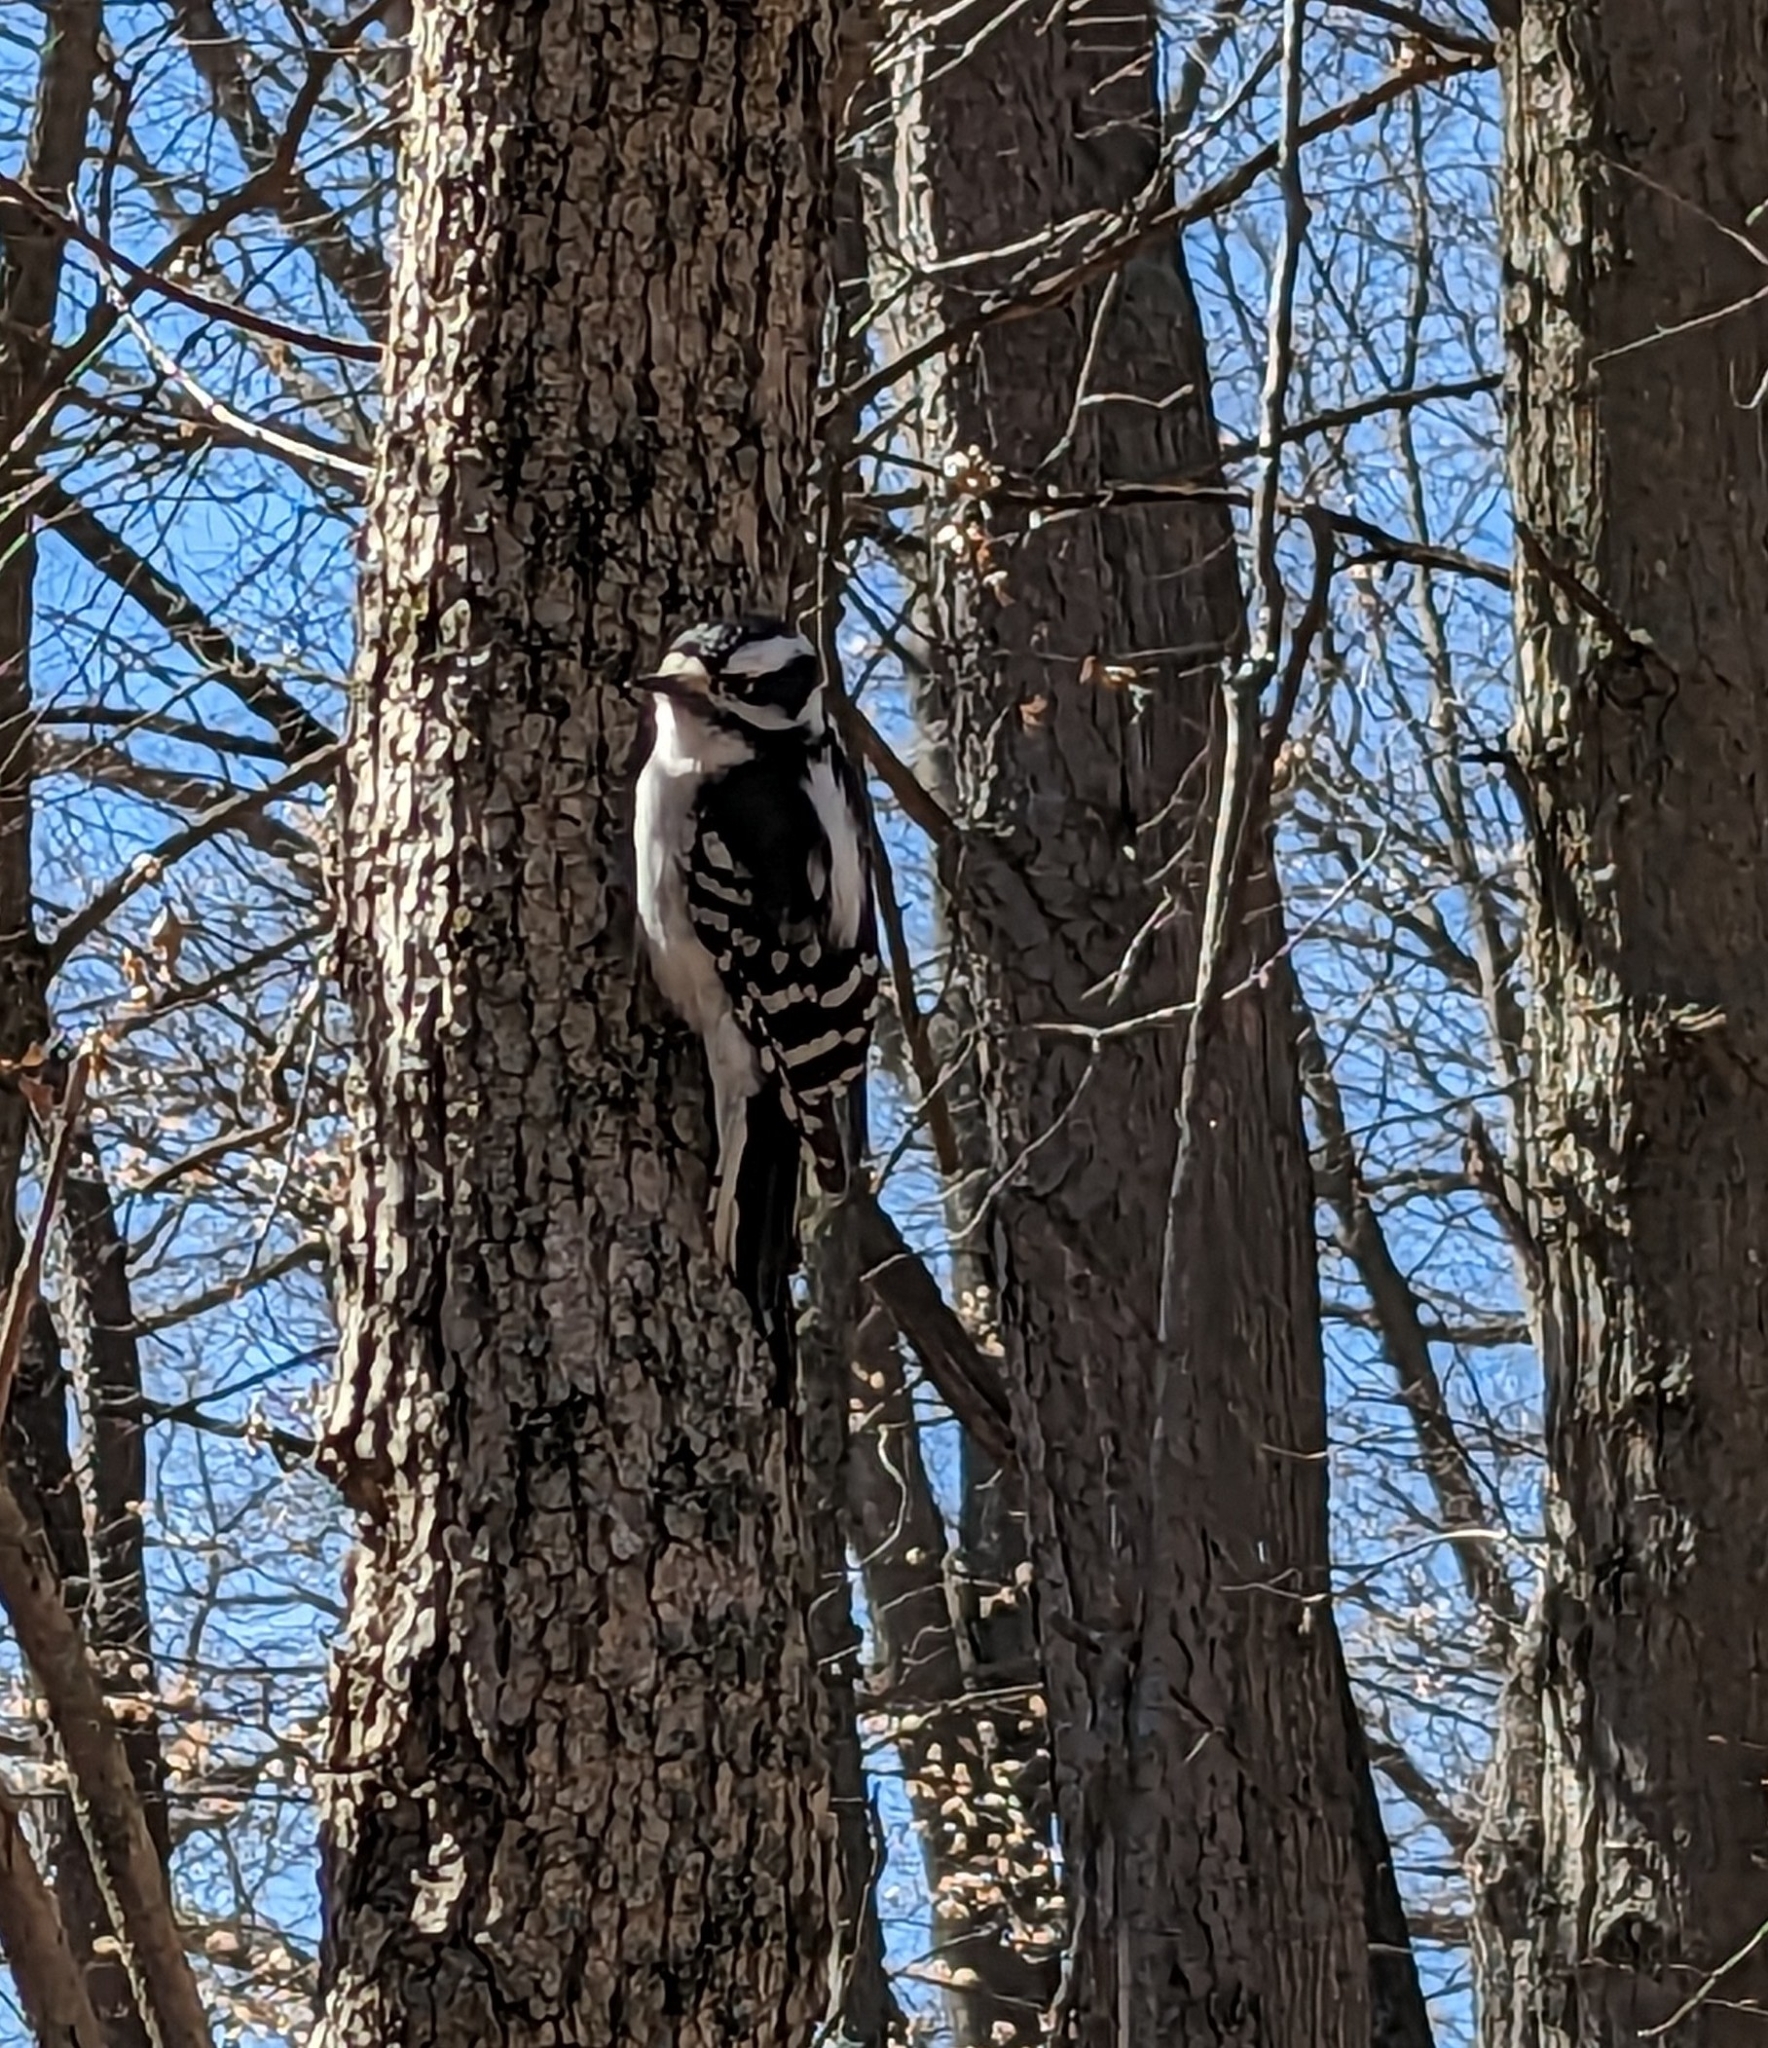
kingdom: Animalia
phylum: Chordata
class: Aves
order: Piciformes
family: Picidae
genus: Dryobates
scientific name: Dryobates pubescens
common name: Downy woodpecker
